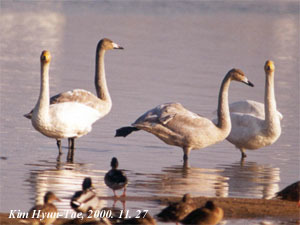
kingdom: Animalia
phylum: Chordata
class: Aves
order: Anseriformes
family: Anatidae
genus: Cygnus
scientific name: Cygnus cygnus
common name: Whooper swan
